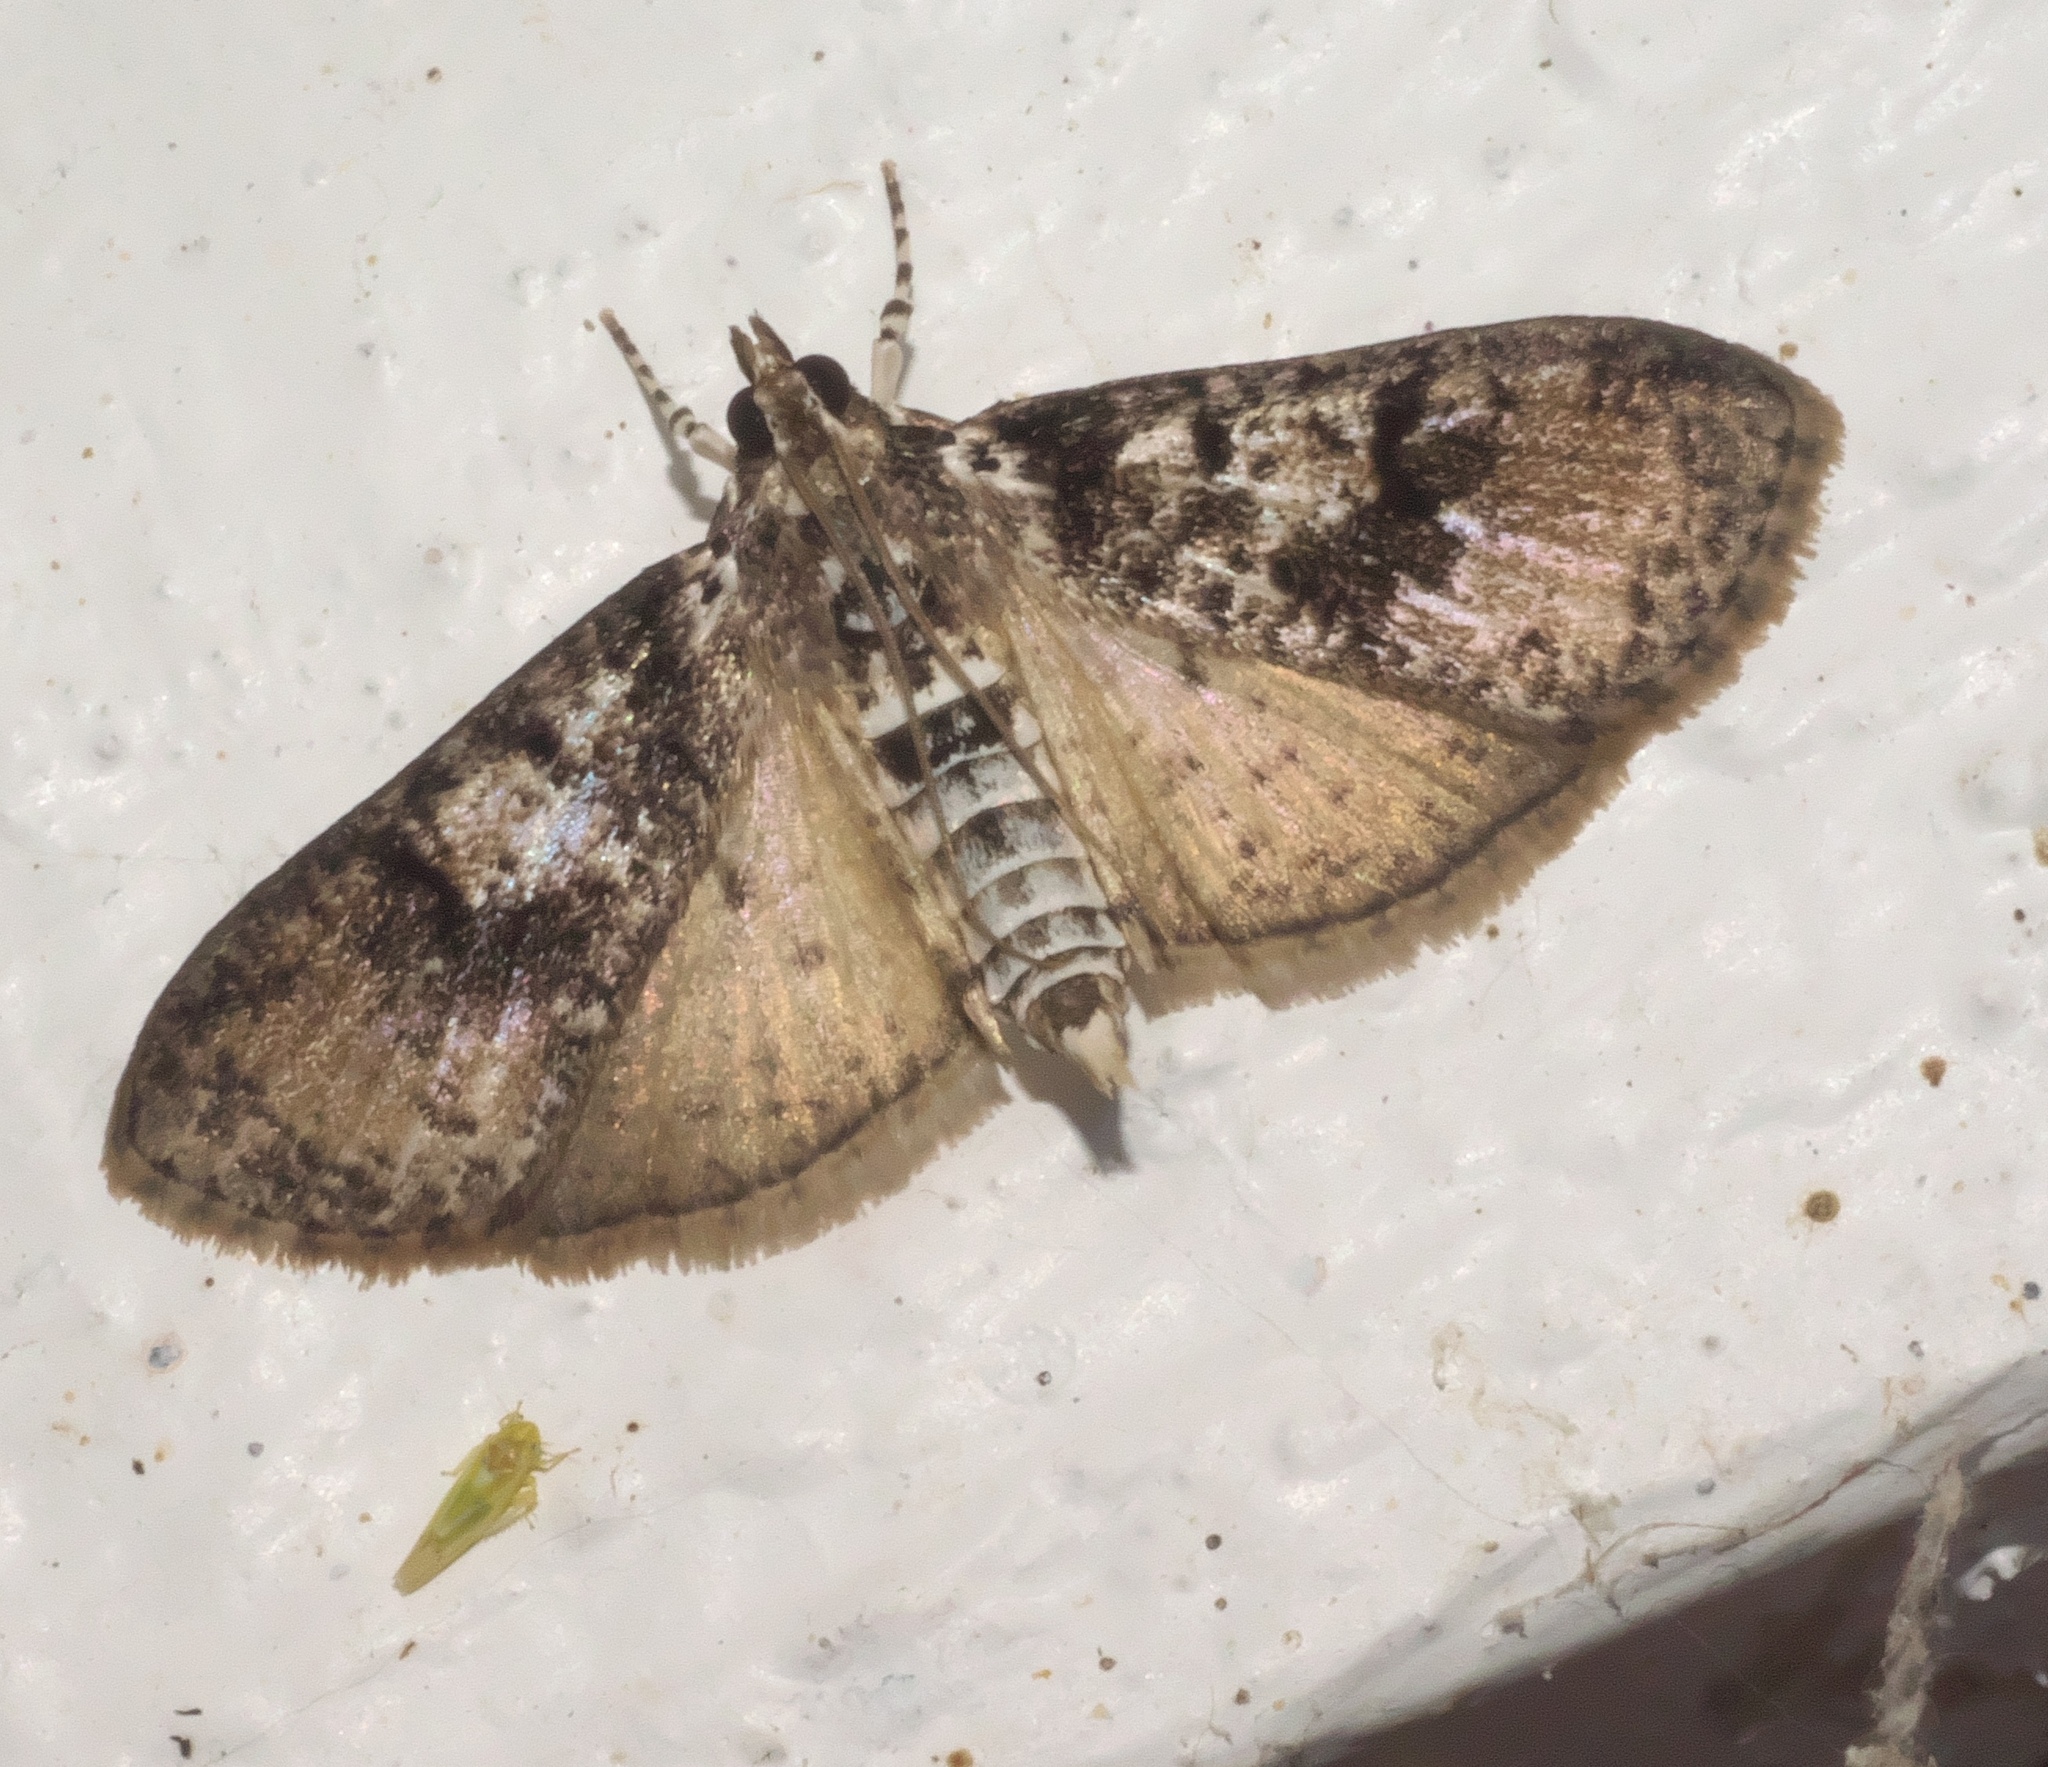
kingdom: Animalia
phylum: Arthropoda
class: Insecta
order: Lepidoptera
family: Crambidae
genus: Palpita
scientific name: Palpita magniferalis
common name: Splendid palpita moth
